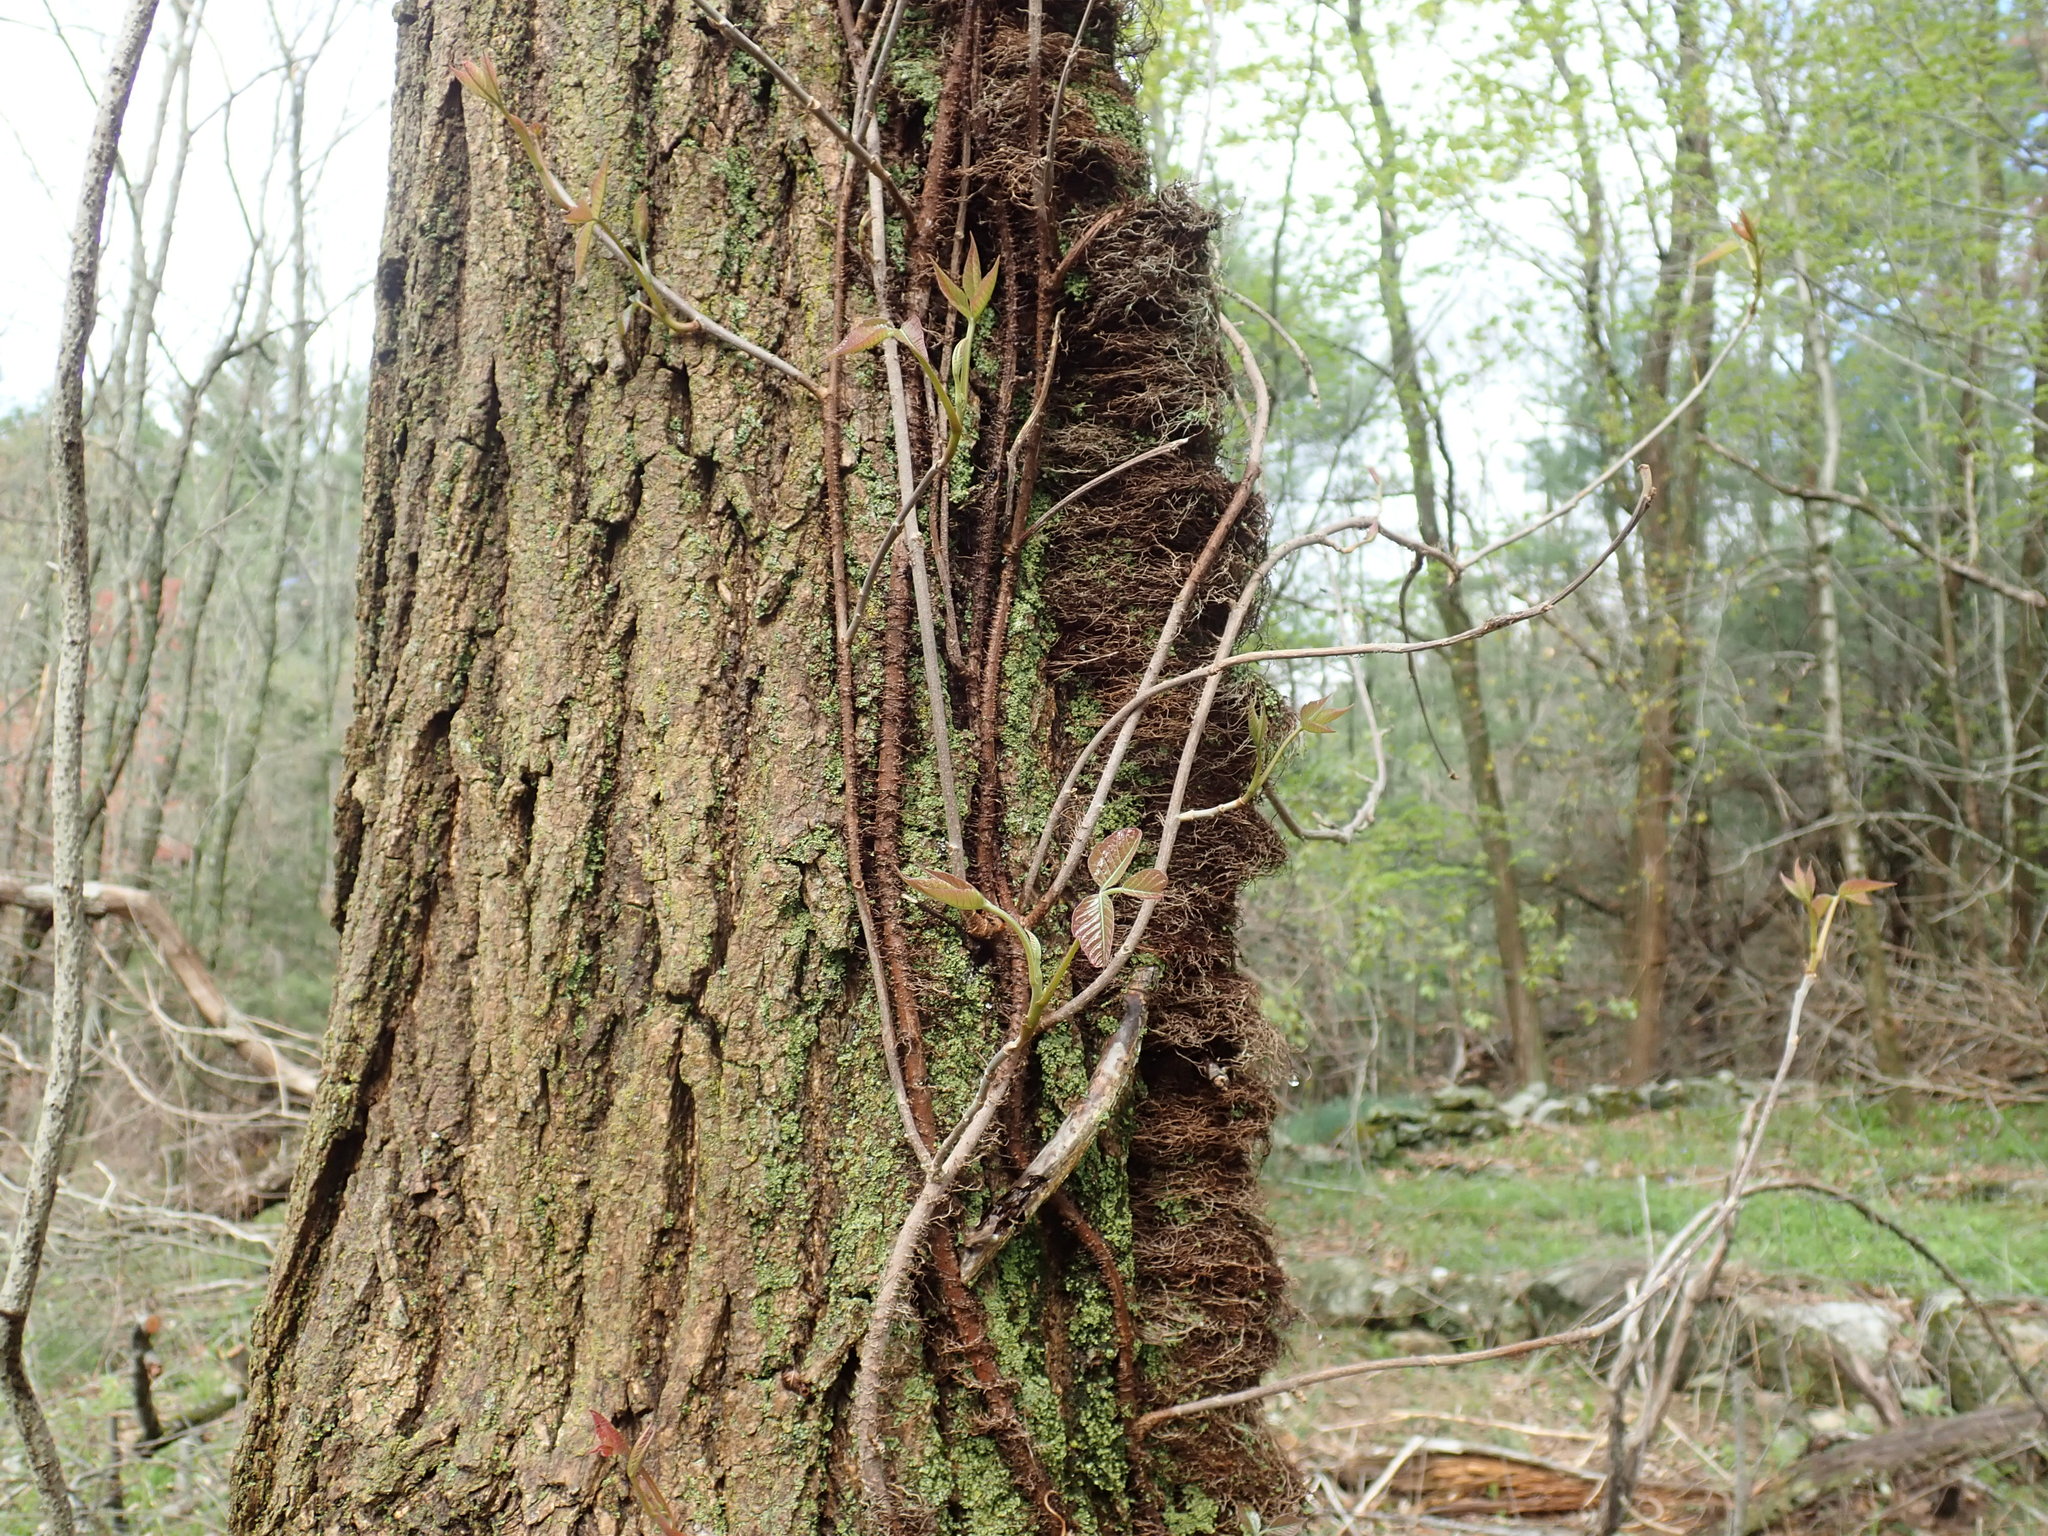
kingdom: Plantae
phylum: Tracheophyta
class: Magnoliopsida
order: Sapindales
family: Anacardiaceae
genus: Toxicodendron
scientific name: Toxicodendron radicans
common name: Poison ivy
